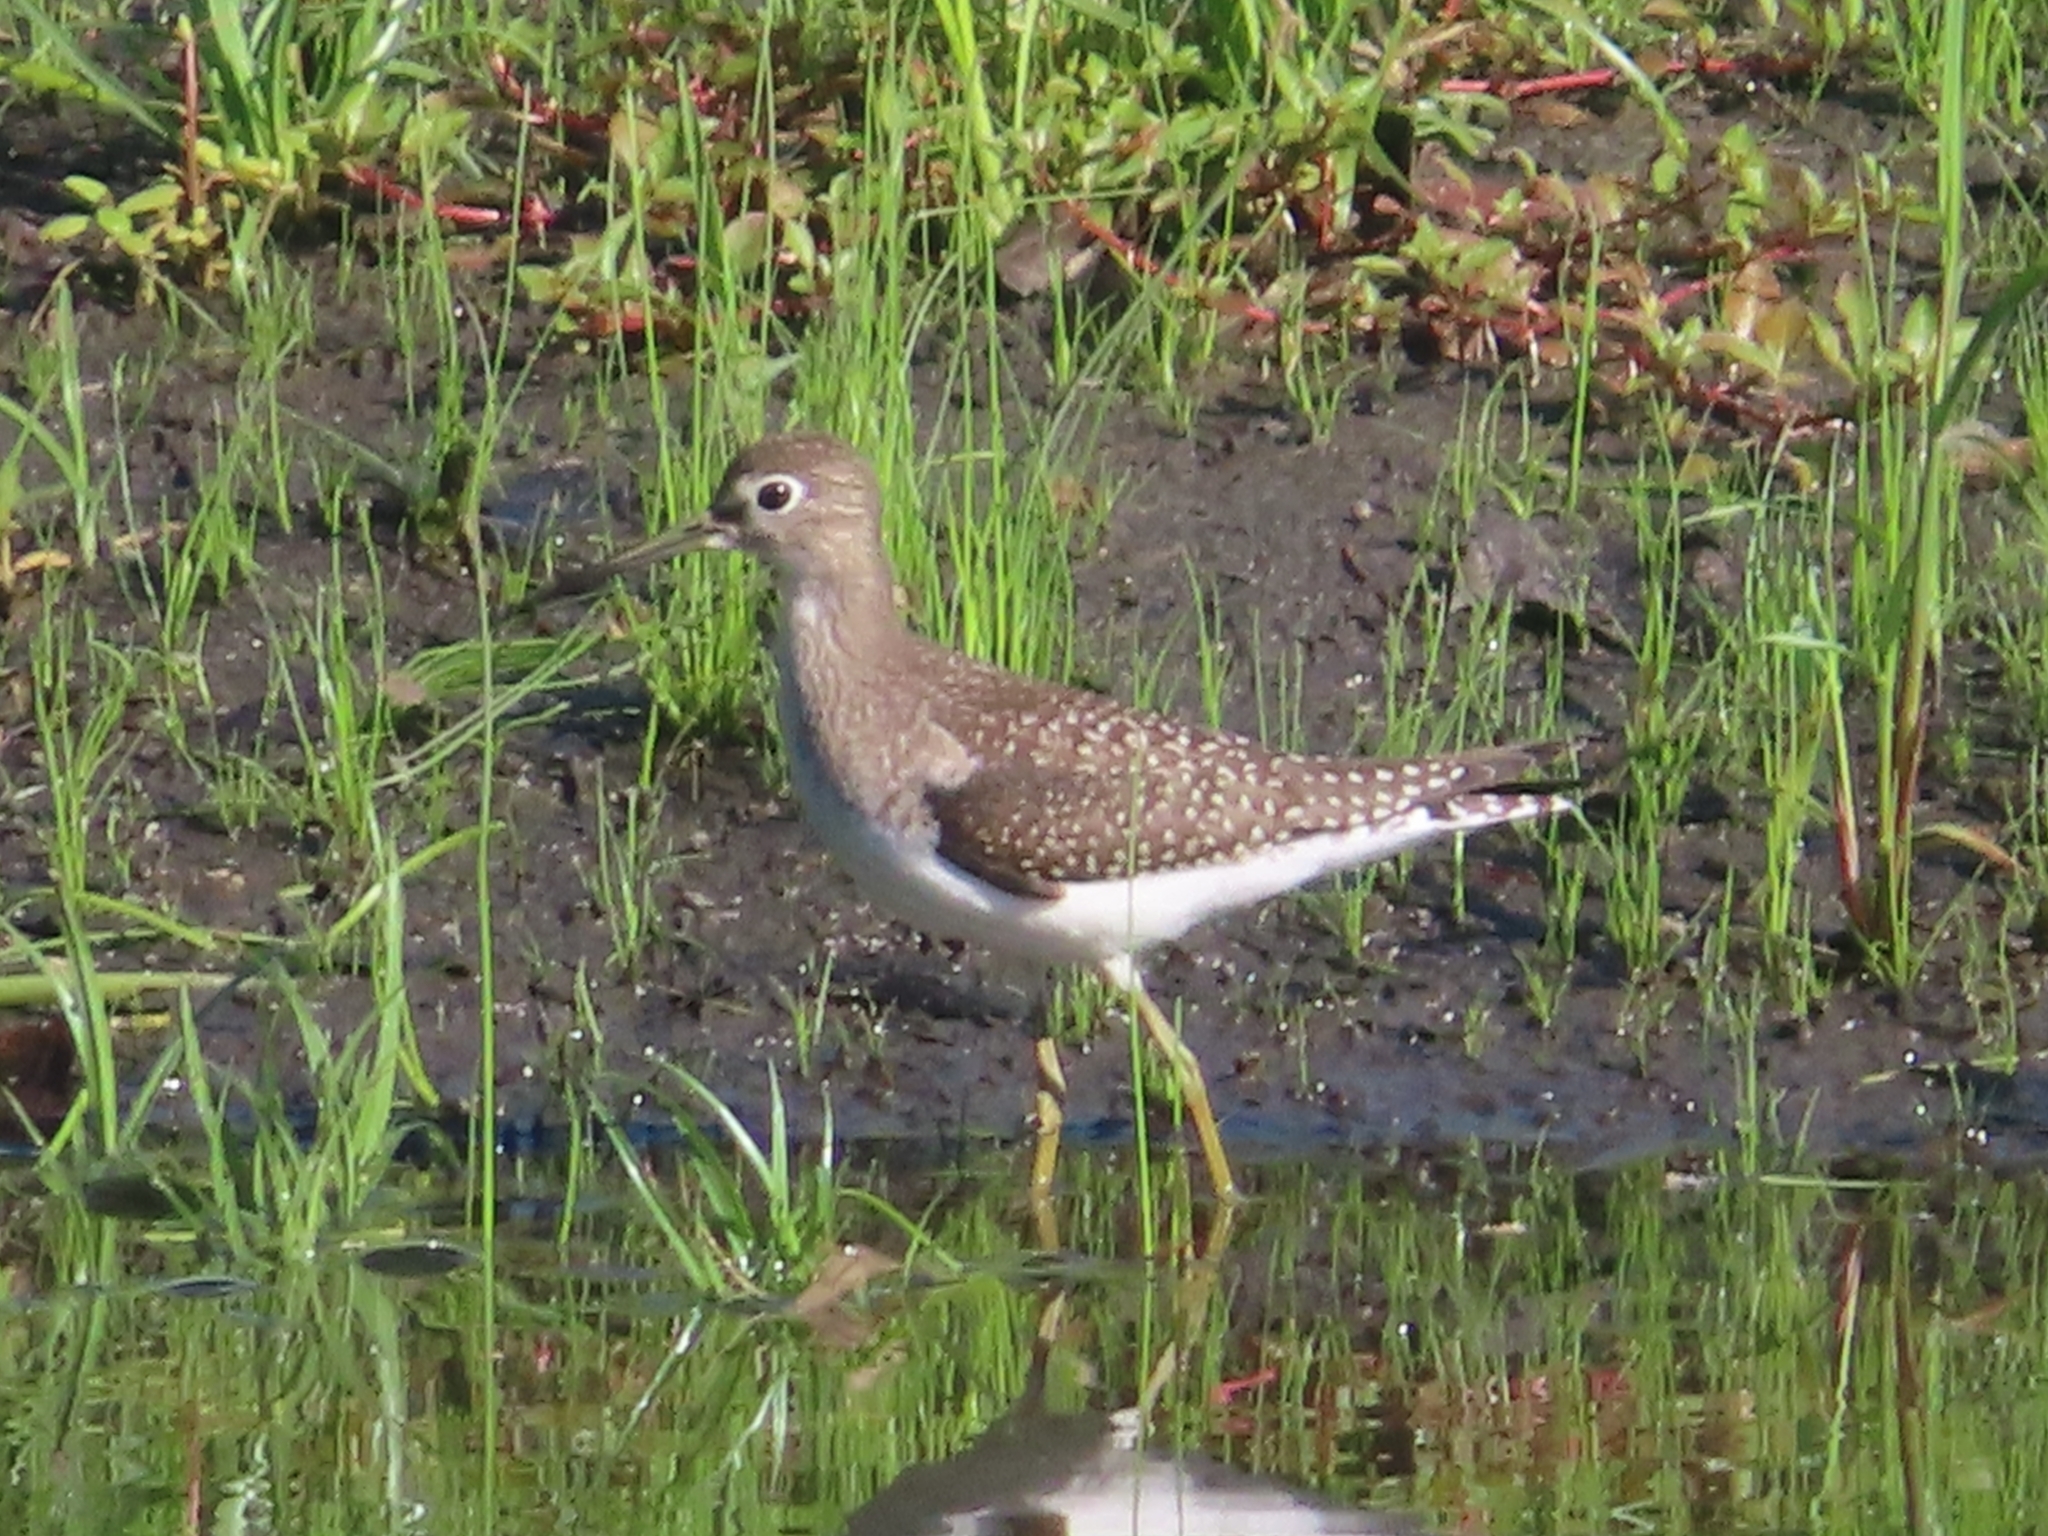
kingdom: Animalia
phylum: Chordata
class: Aves
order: Charadriiformes
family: Scolopacidae
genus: Tringa
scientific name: Tringa solitaria
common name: Solitary sandpiper
